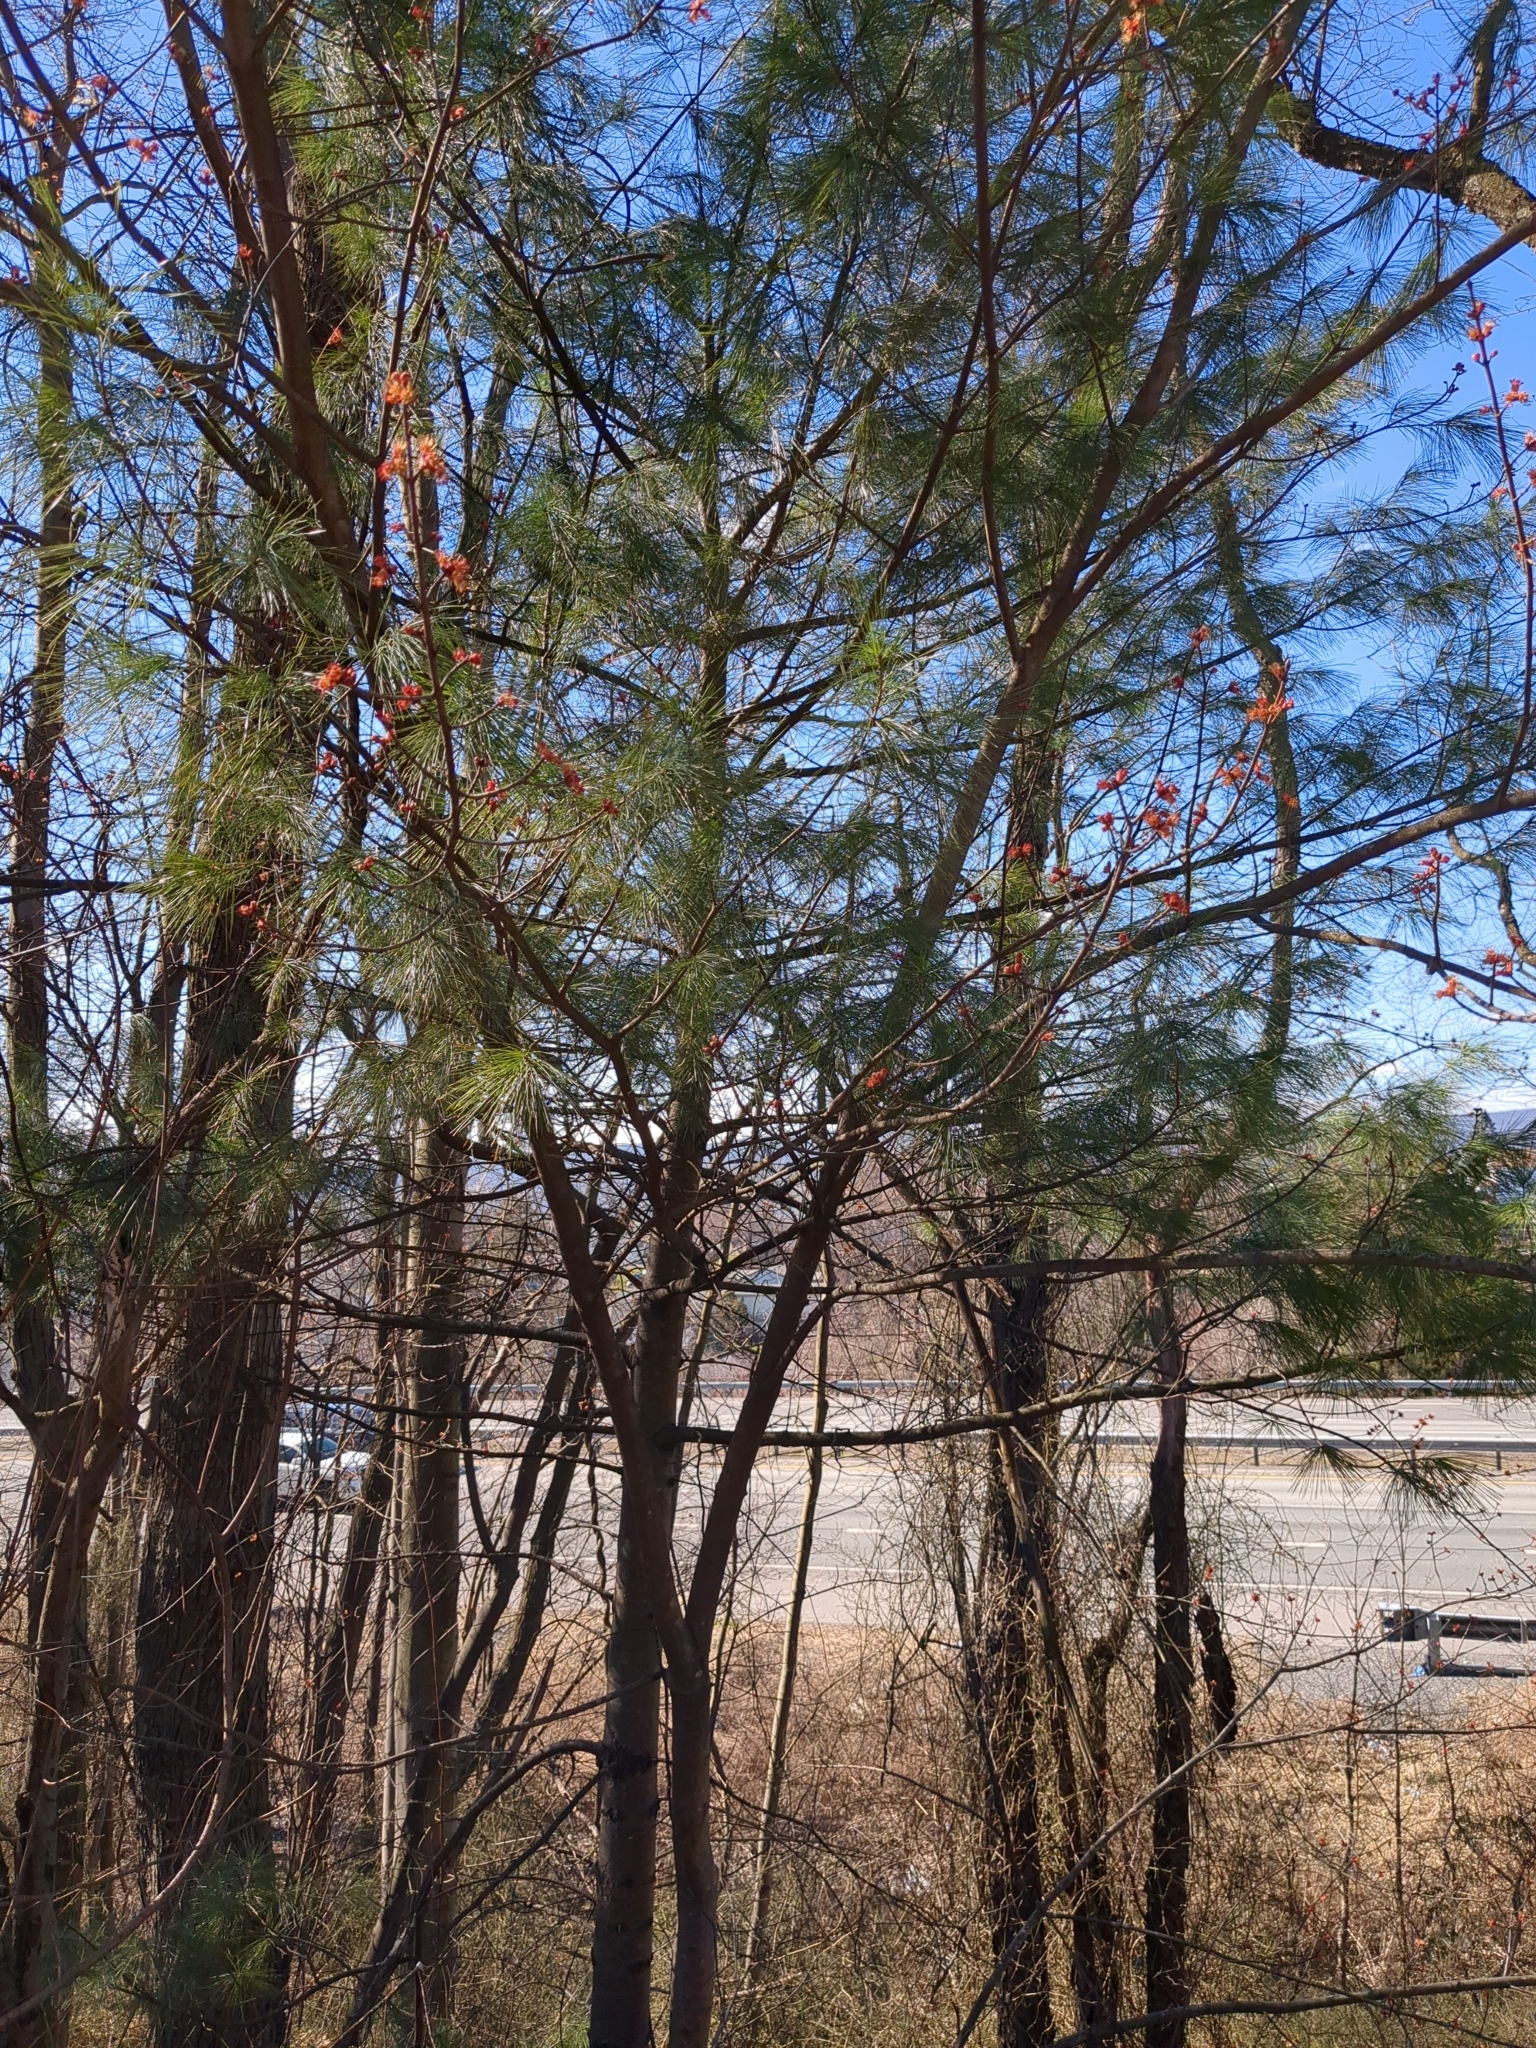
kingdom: Plantae
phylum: Tracheophyta
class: Pinopsida
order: Pinales
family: Pinaceae
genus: Pinus
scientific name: Pinus strobus
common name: Weymouth pine
